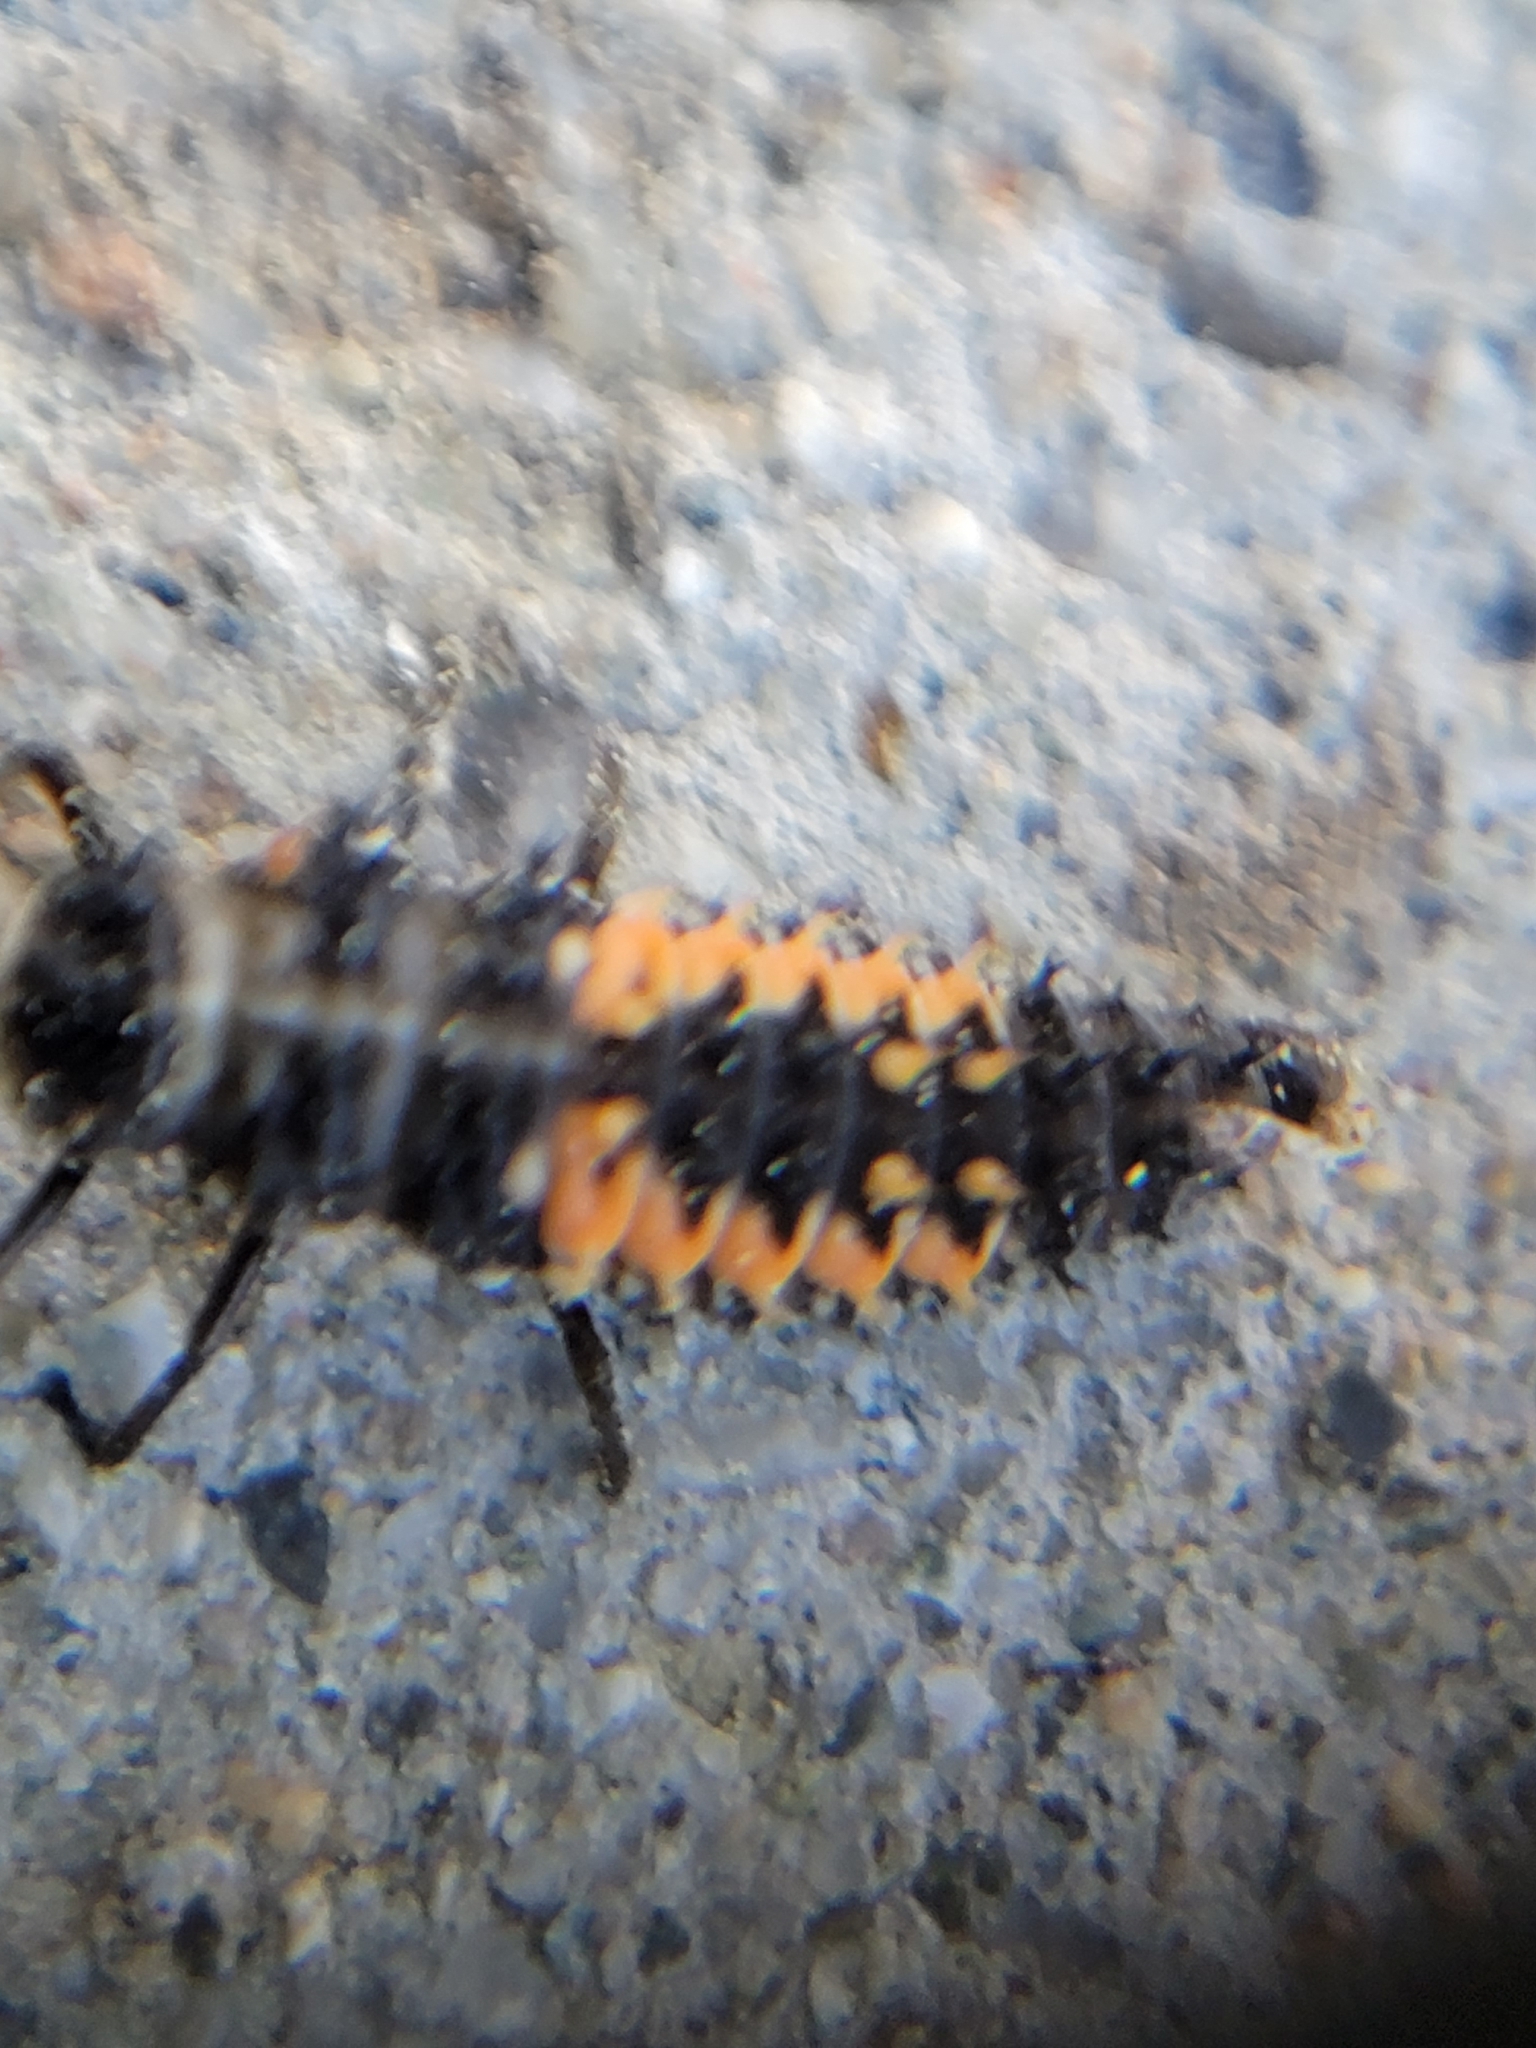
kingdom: Animalia
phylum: Arthropoda
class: Insecta
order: Coleoptera
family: Coccinellidae
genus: Harmonia
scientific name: Harmonia axyridis
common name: Harlequin ladybird
